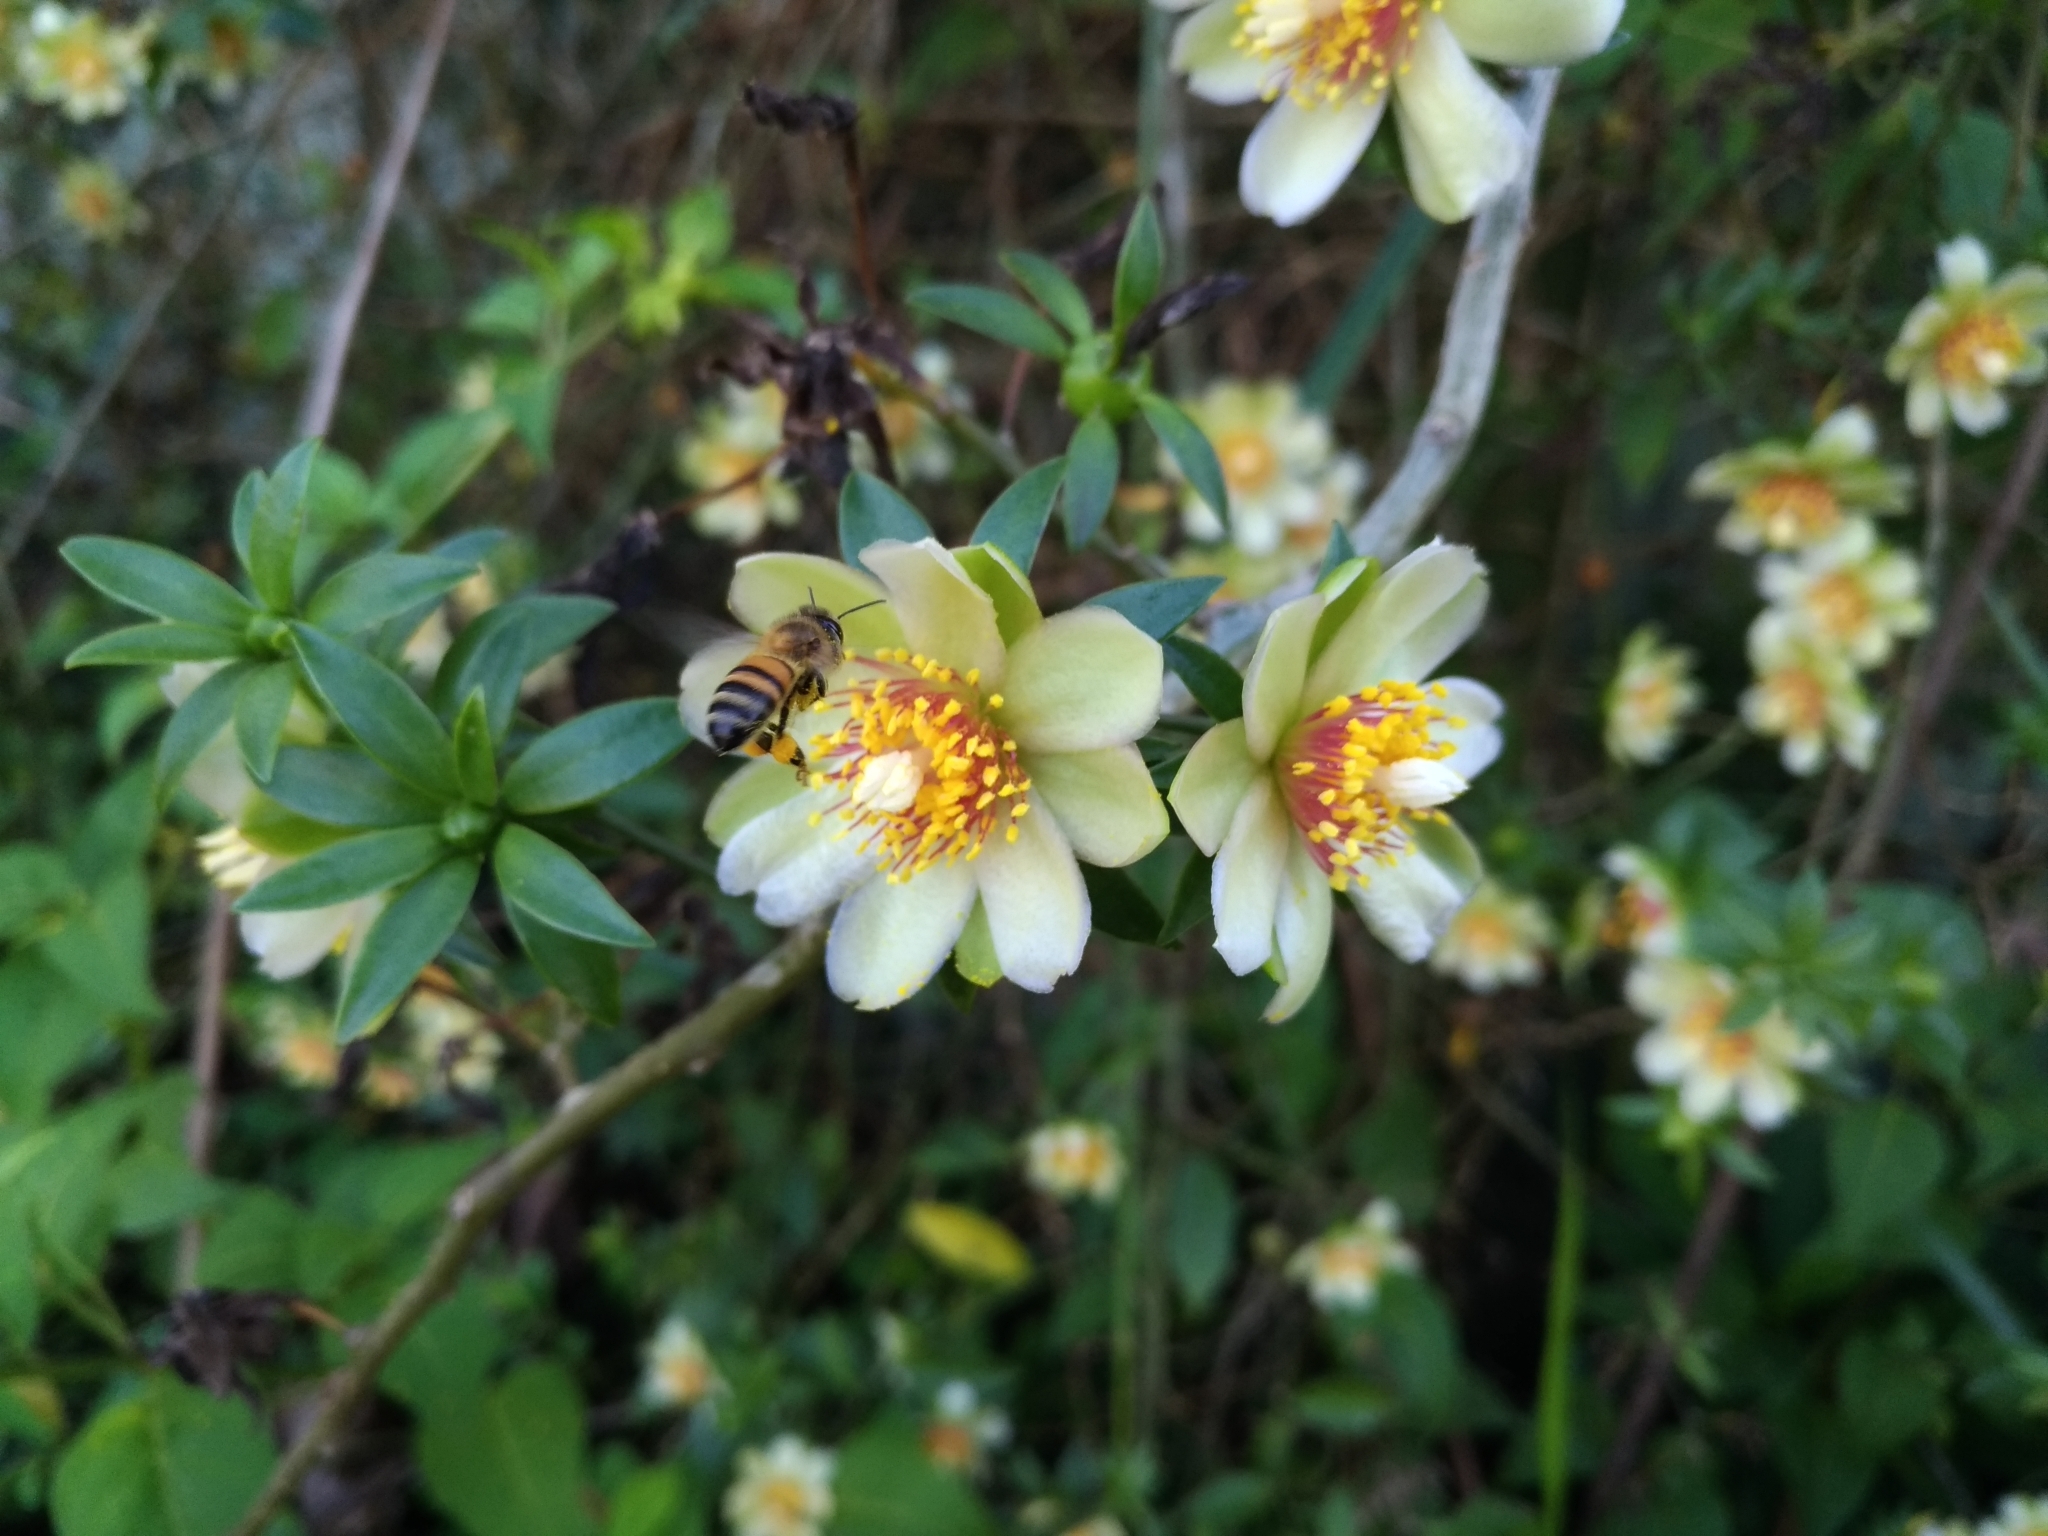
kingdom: Animalia
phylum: Arthropoda
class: Insecta
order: Hymenoptera
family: Apidae
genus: Apis
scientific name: Apis mellifera
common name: Honey bee
